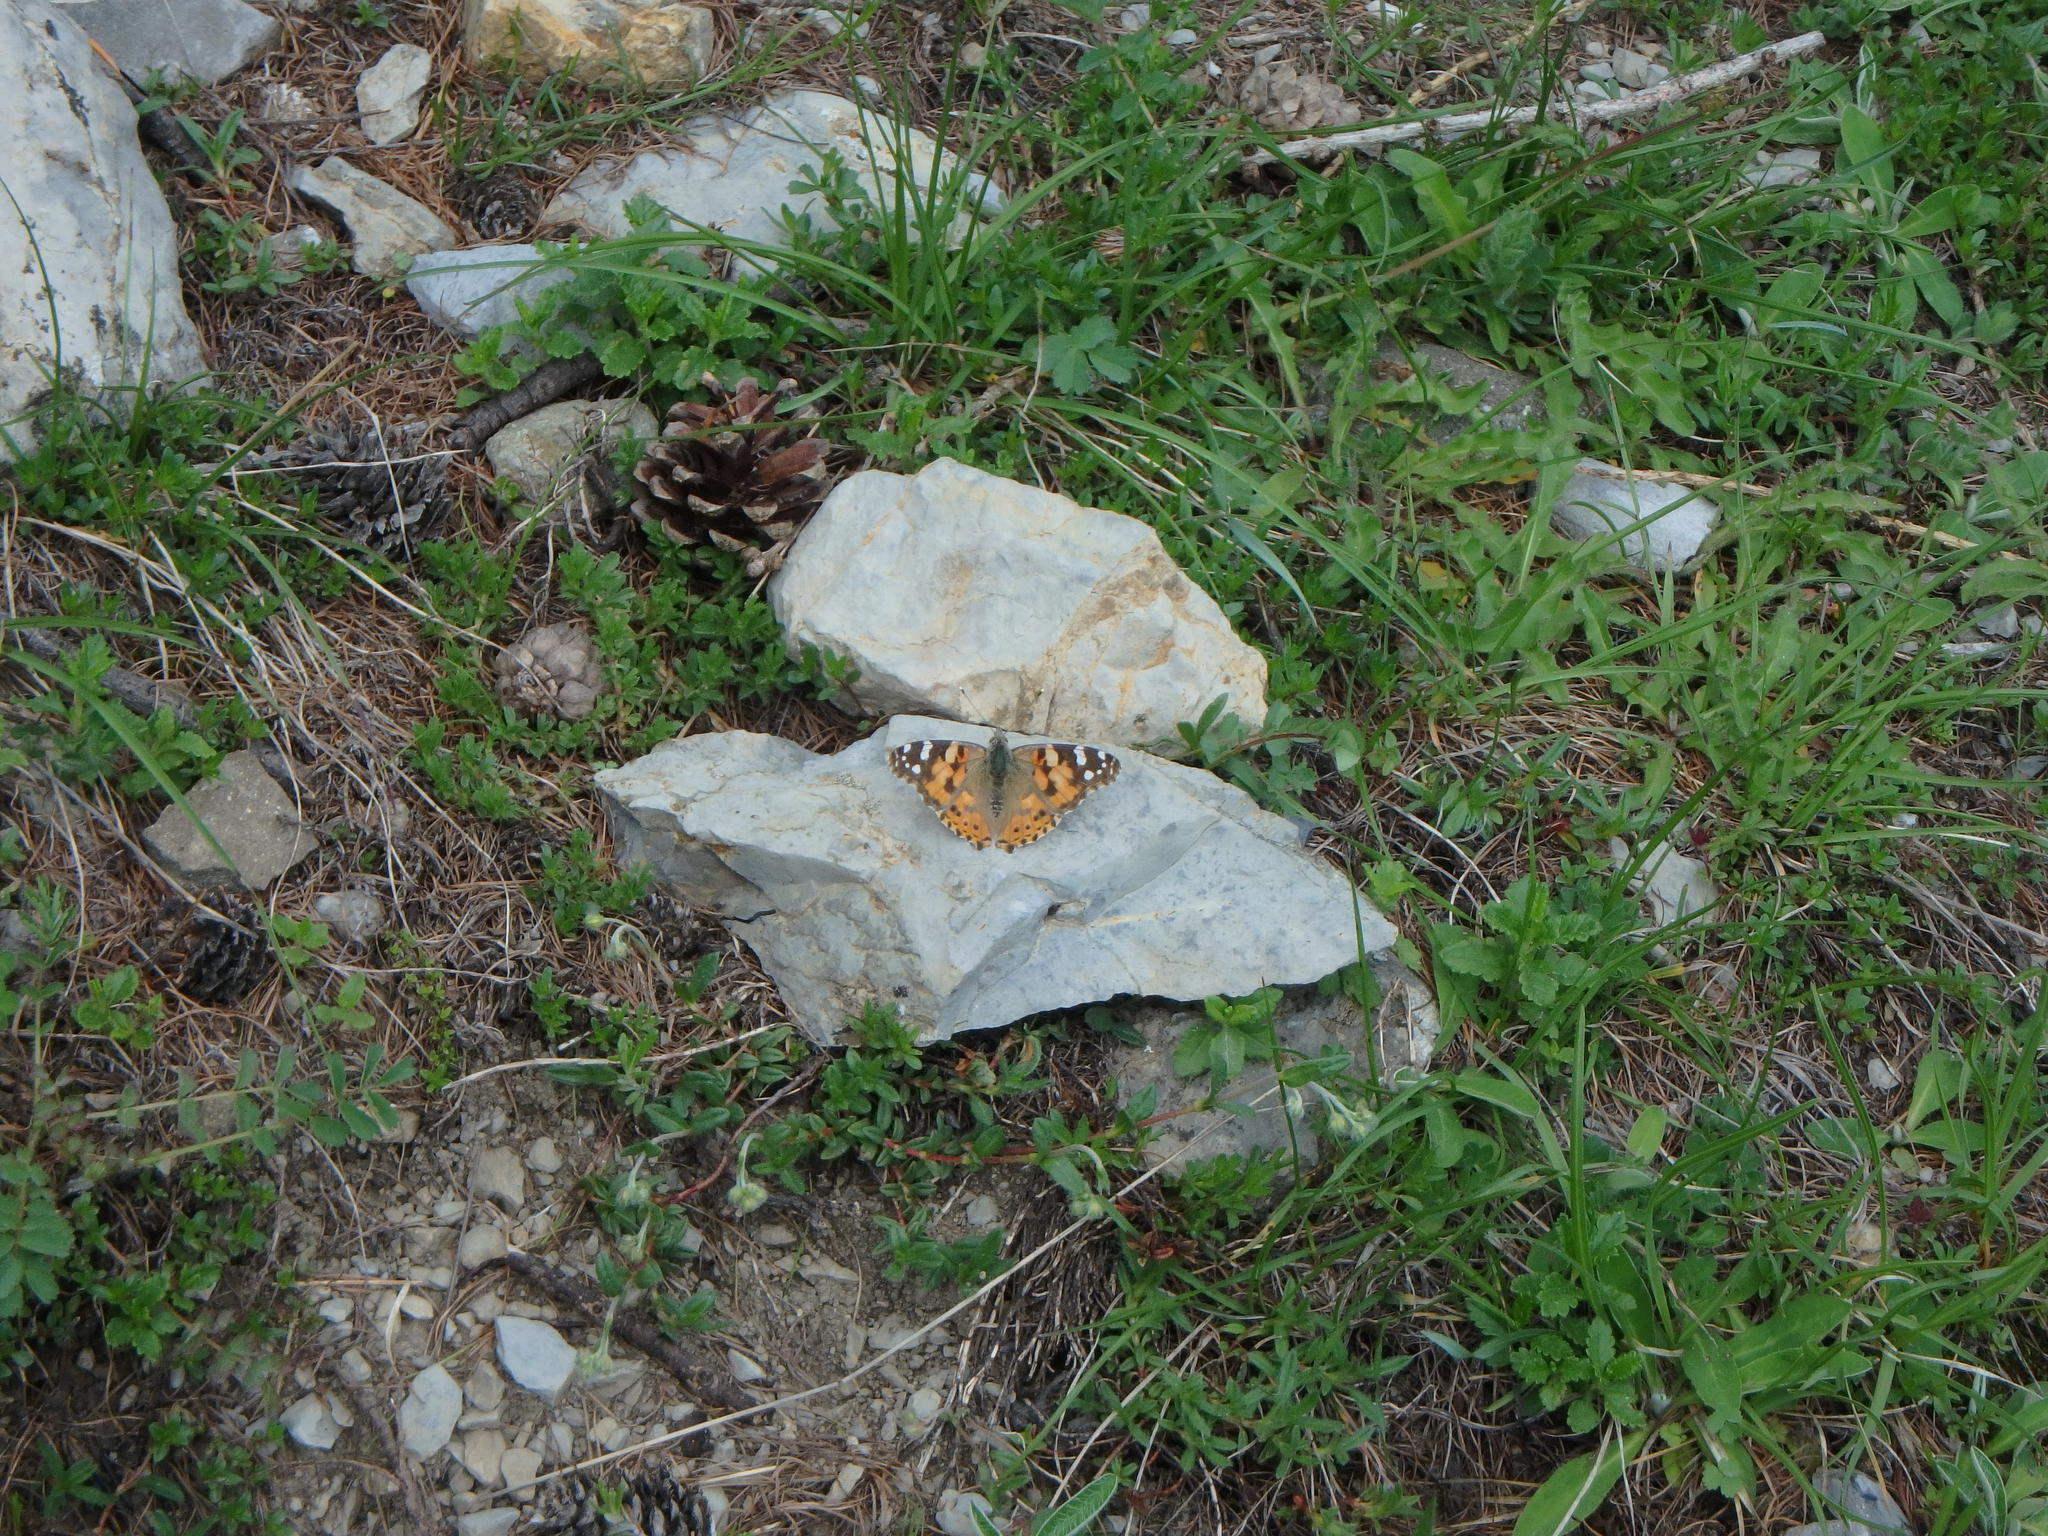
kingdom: Animalia
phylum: Arthropoda
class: Insecta
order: Lepidoptera
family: Nymphalidae
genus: Vanessa
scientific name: Vanessa cardui
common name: Painted lady
